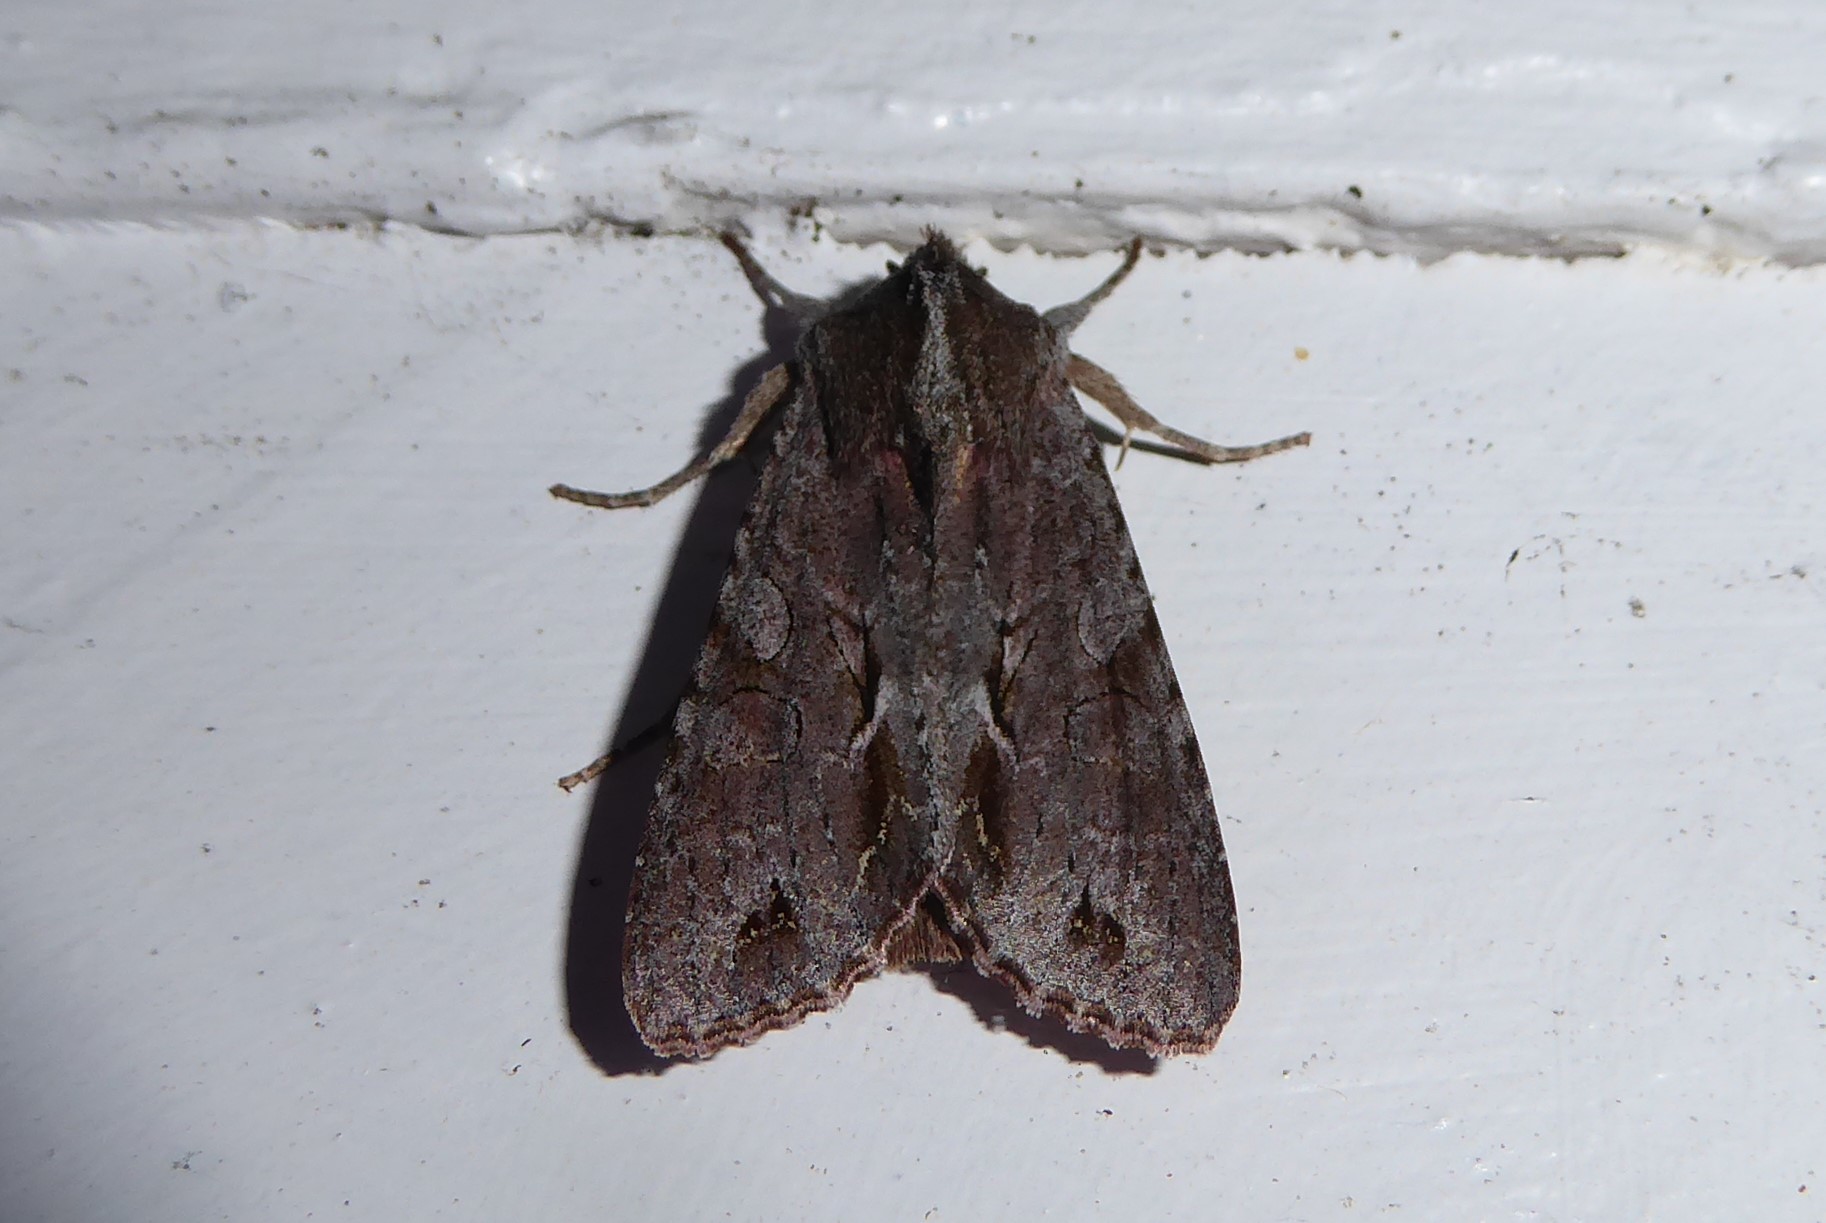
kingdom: Animalia
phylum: Arthropoda
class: Insecta
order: Lepidoptera
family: Noctuidae
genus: Ichneutica
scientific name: Ichneutica
